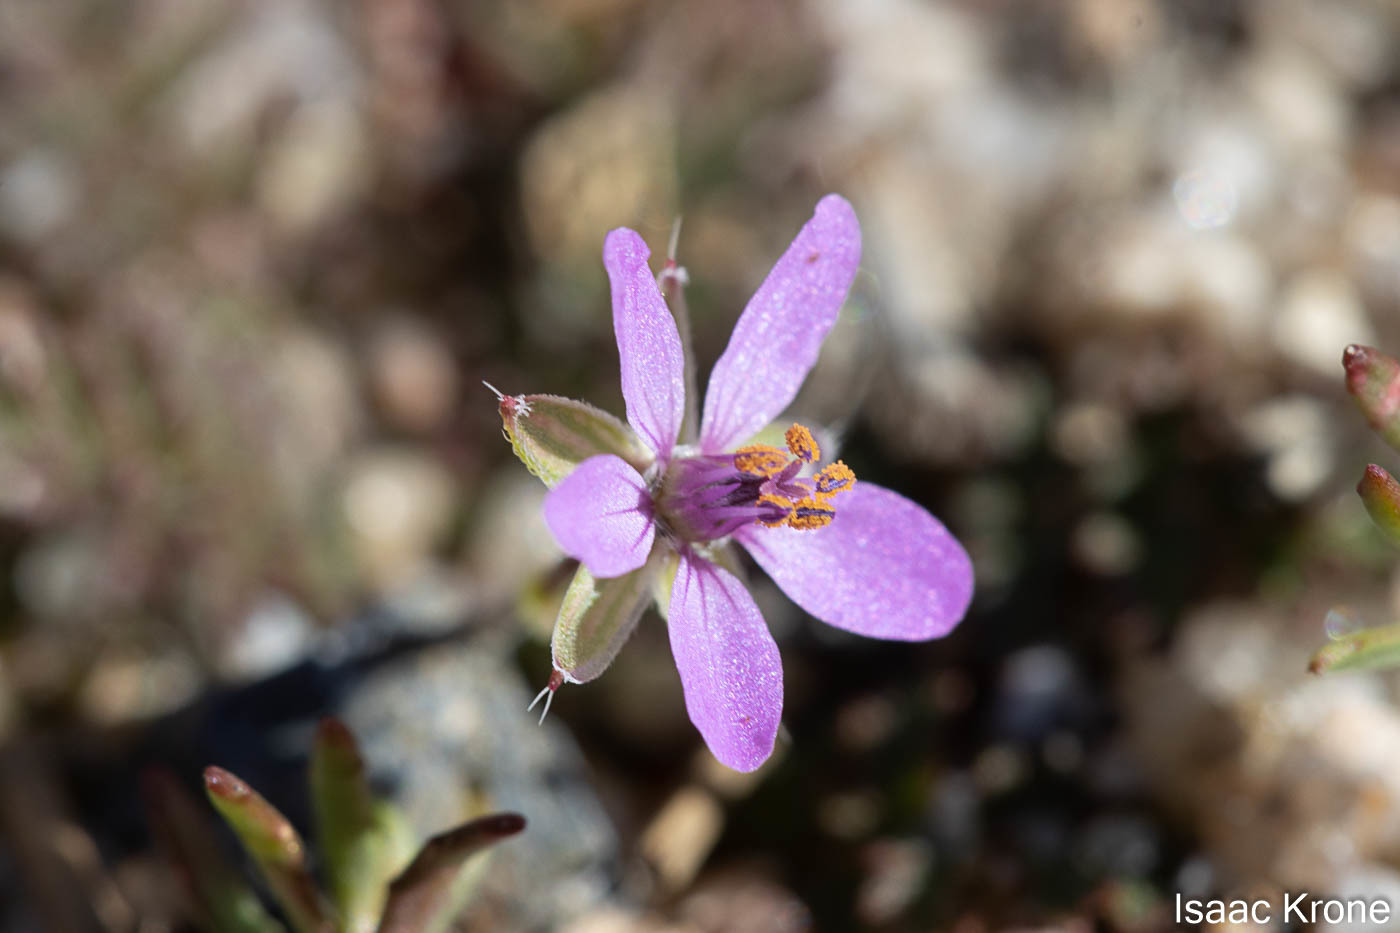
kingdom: Plantae
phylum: Tracheophyta
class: Magnoliopsida
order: Geraniales
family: Geraniaceae
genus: Erodium
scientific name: Erodium cicutarium
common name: Common stork's-bill
